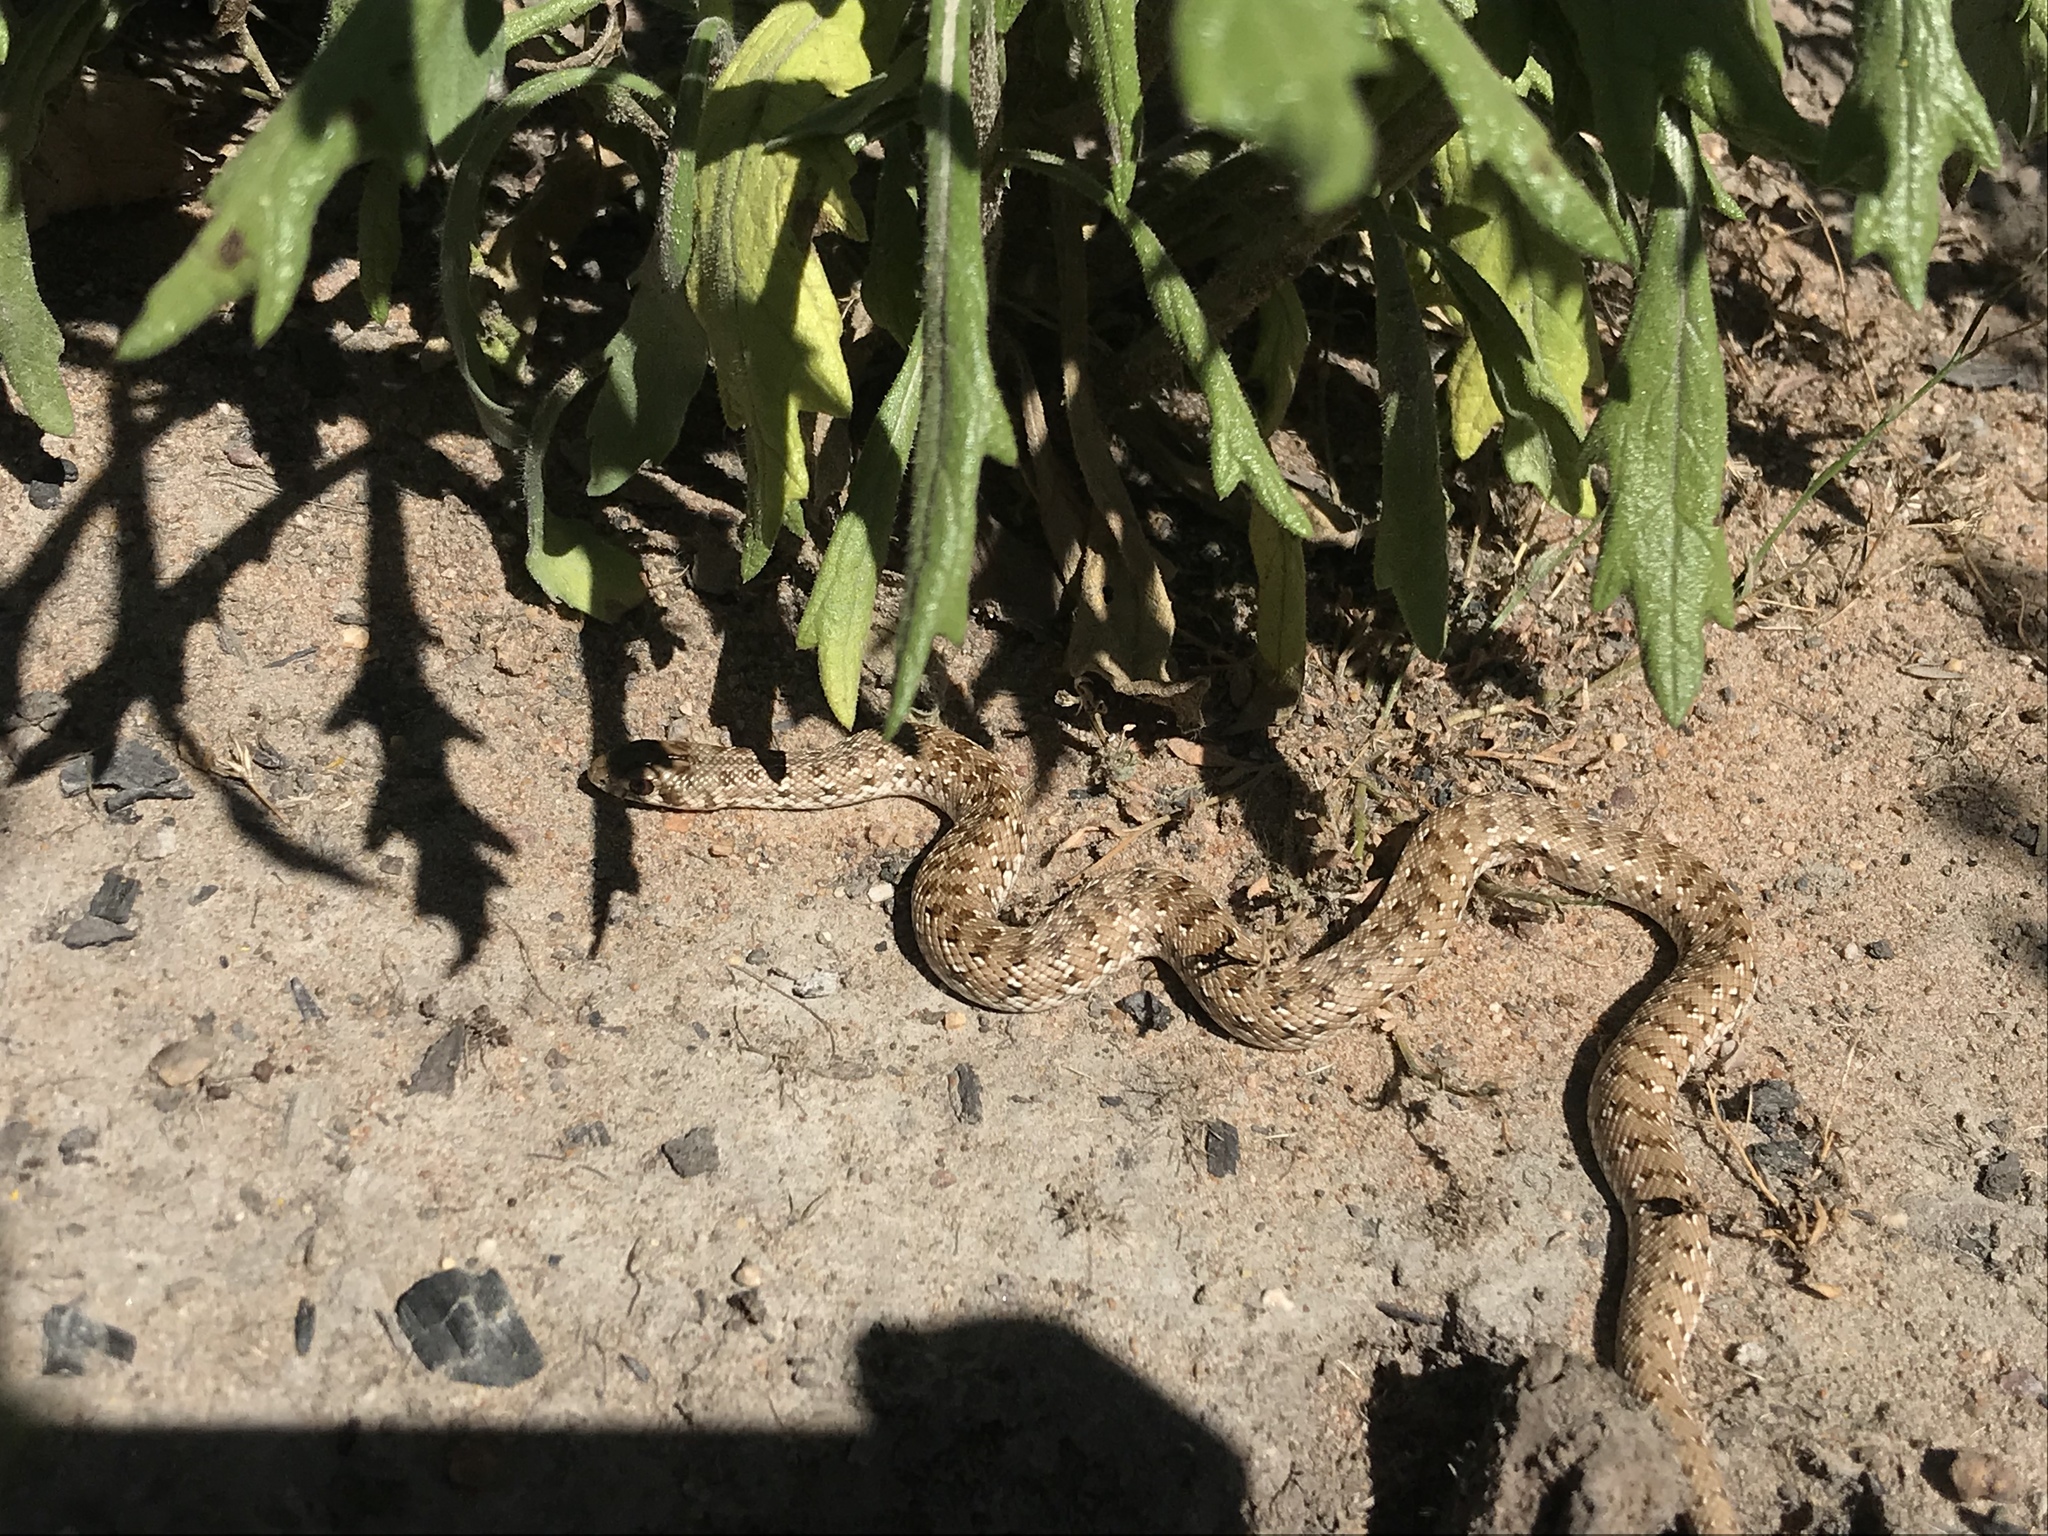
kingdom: Animalia
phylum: Chordata
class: Squamata
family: Pseudaspididae
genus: Pseudaspis
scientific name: Pseudaspis cana
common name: Mole snake
